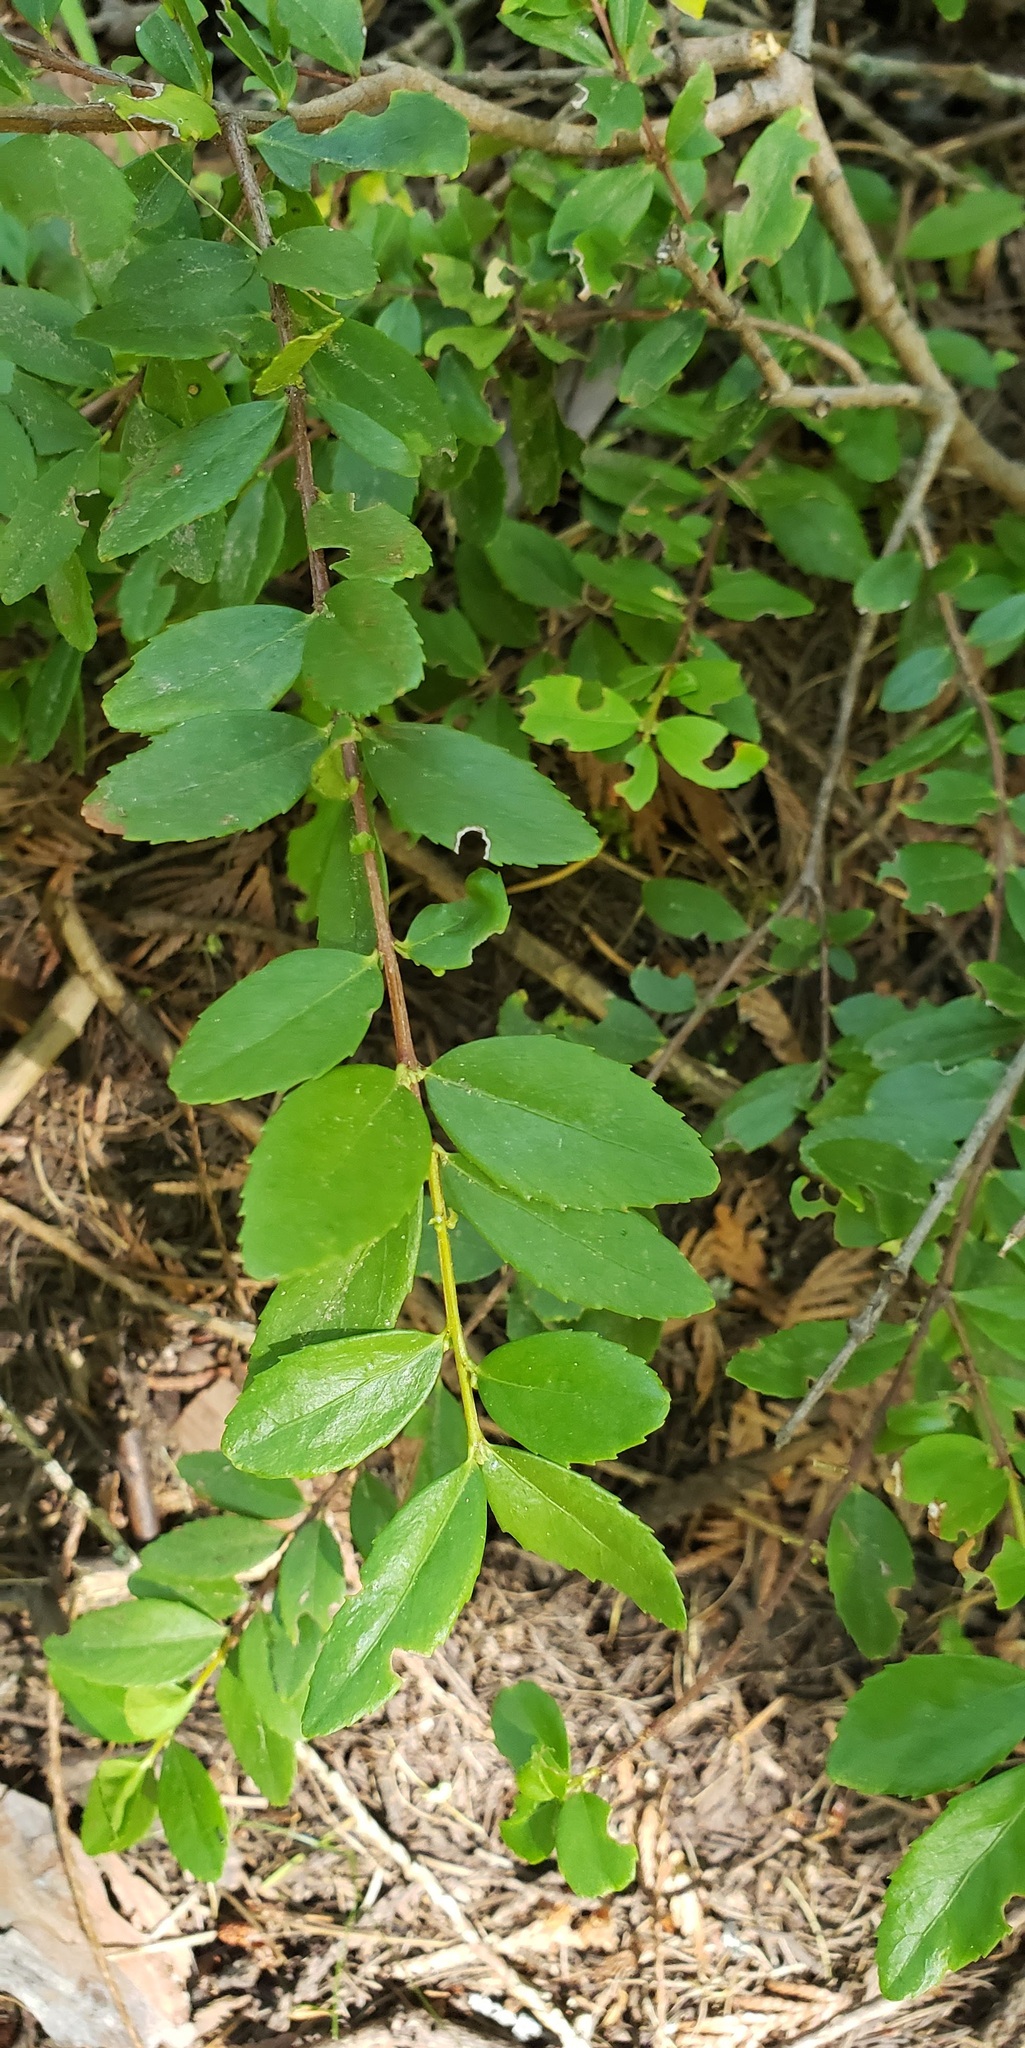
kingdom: Plantae
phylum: Tracheophyta
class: Magnoliopsida
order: Celastrales
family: Celastraceae
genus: Paxistima
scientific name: Paxistima myrsinites
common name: Mountain-lover
